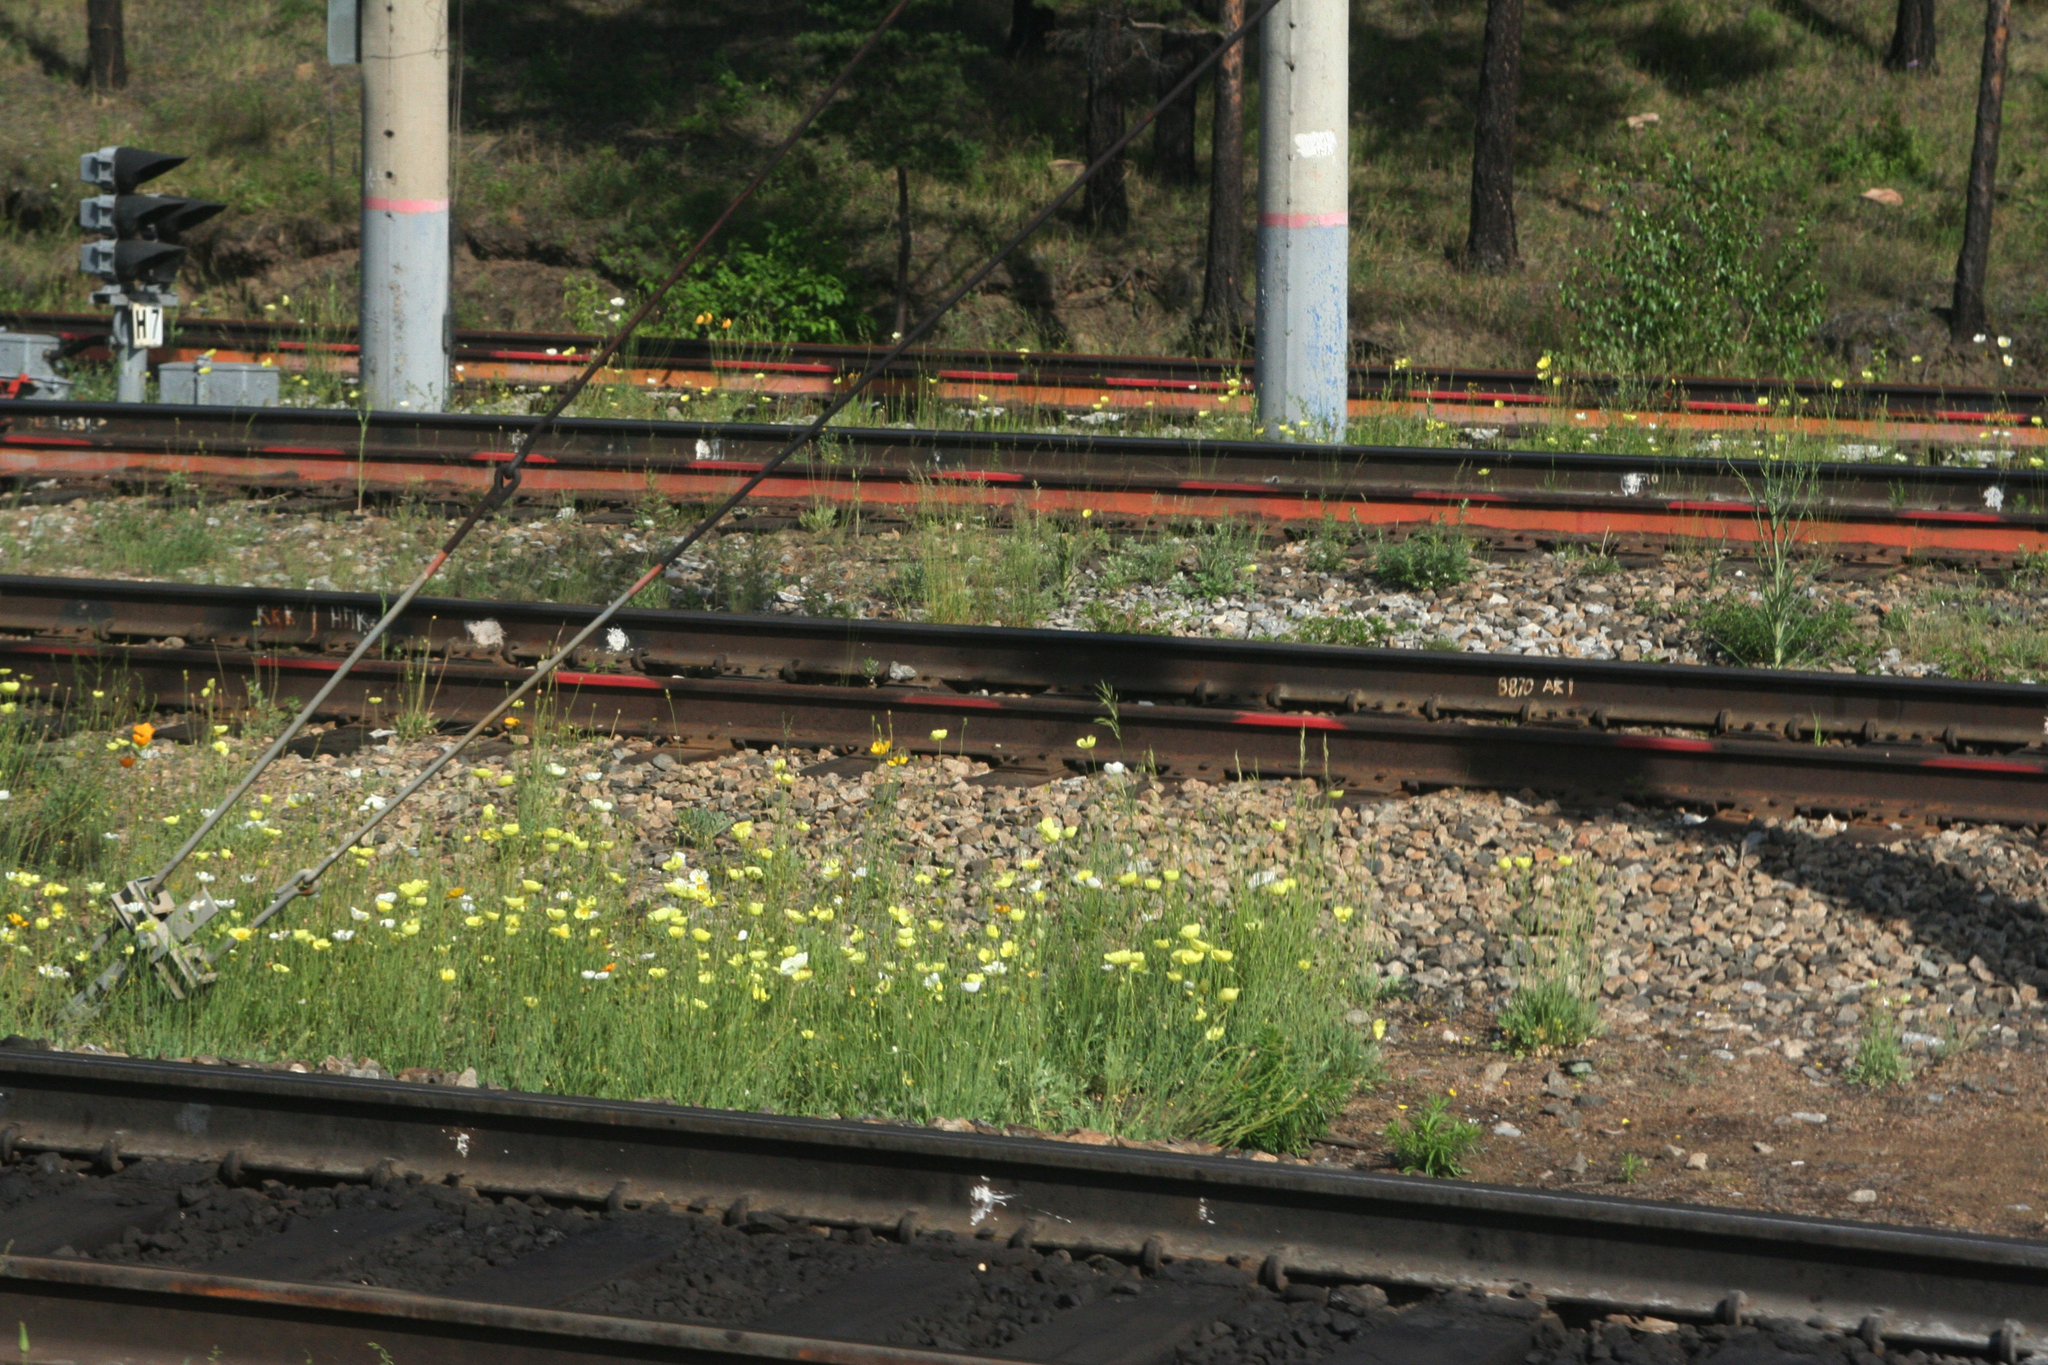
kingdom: Plantae
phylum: Tracheophyta
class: Magnoliopsida
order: Ranunculales
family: Papaveraceae
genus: Papaver
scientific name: Papaver nudicaule
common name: Arctic poppy
